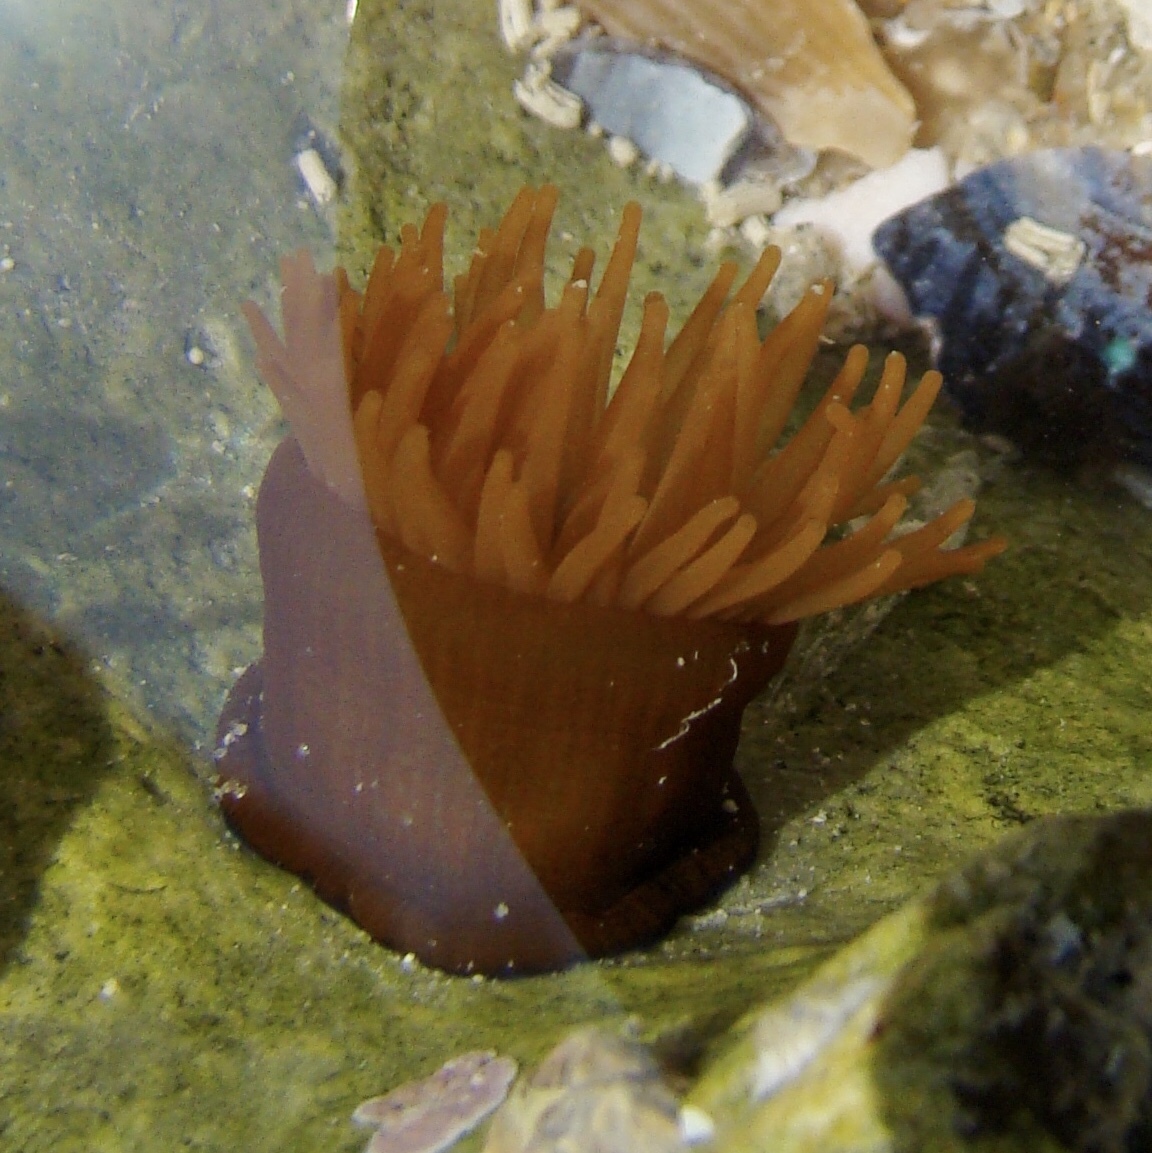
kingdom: Animalia
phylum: Cnidaria
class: Anthozoa
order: Actiniaria
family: Actiniidae
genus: Actinia
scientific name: Actinia equina
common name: Beadlet anemone
